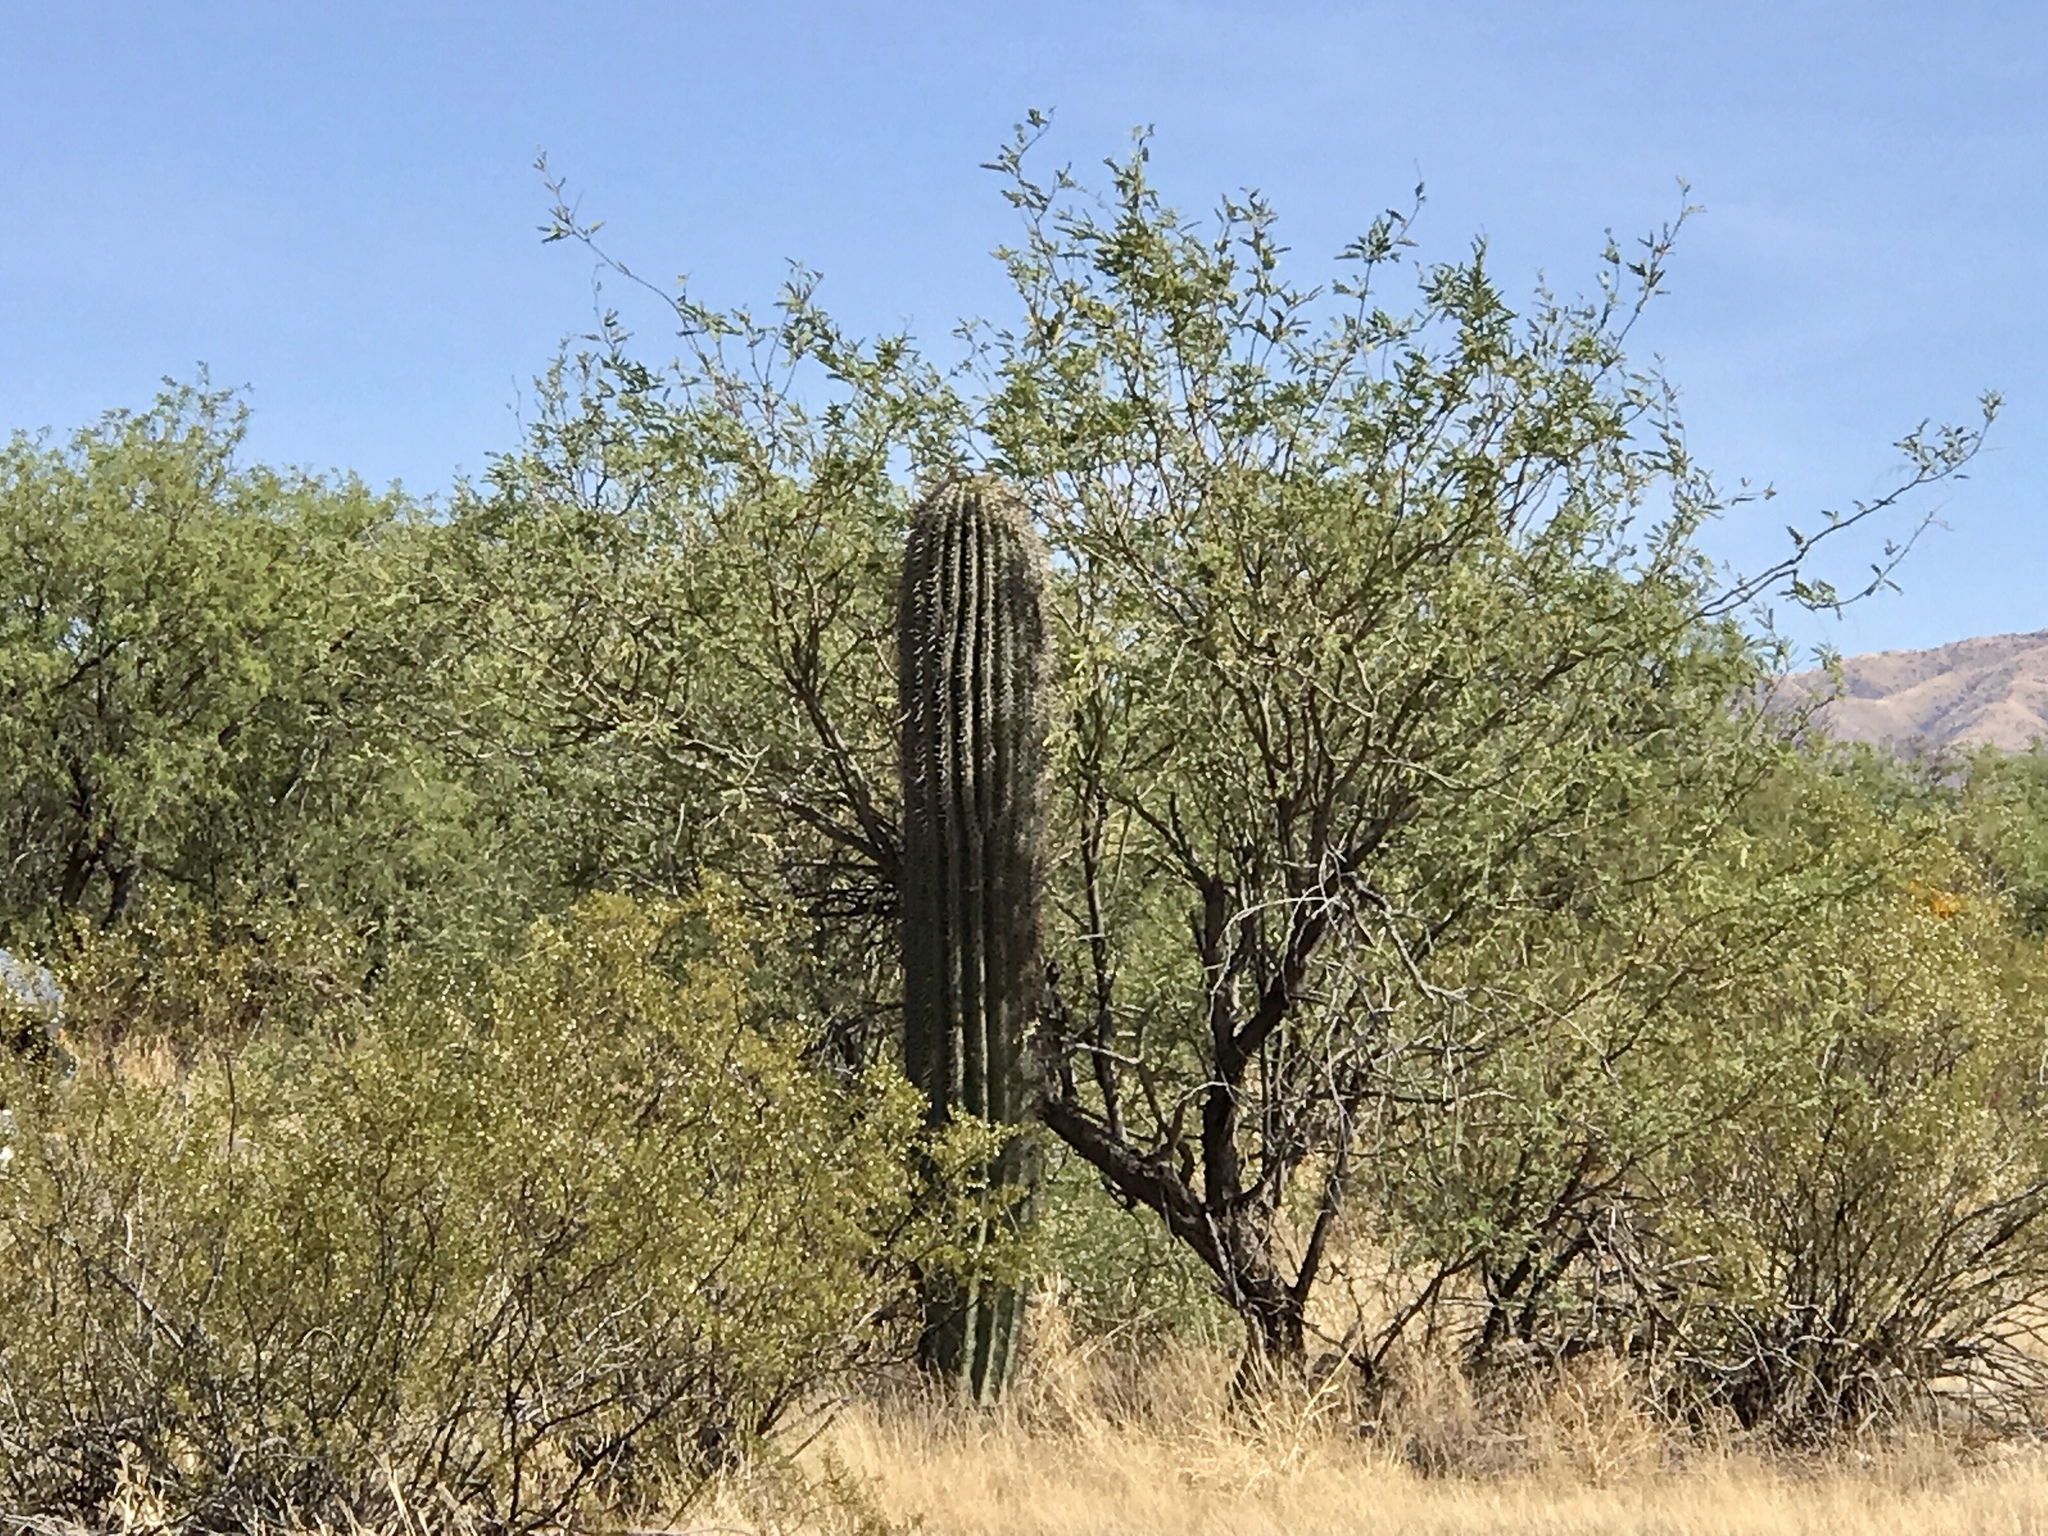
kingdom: Plantae
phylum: Tracheophyta
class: Magnoliopsida
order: Caryophyllales
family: Cactaceae
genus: Carnegiea
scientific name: Carnegiea gigantea
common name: Saguaro
